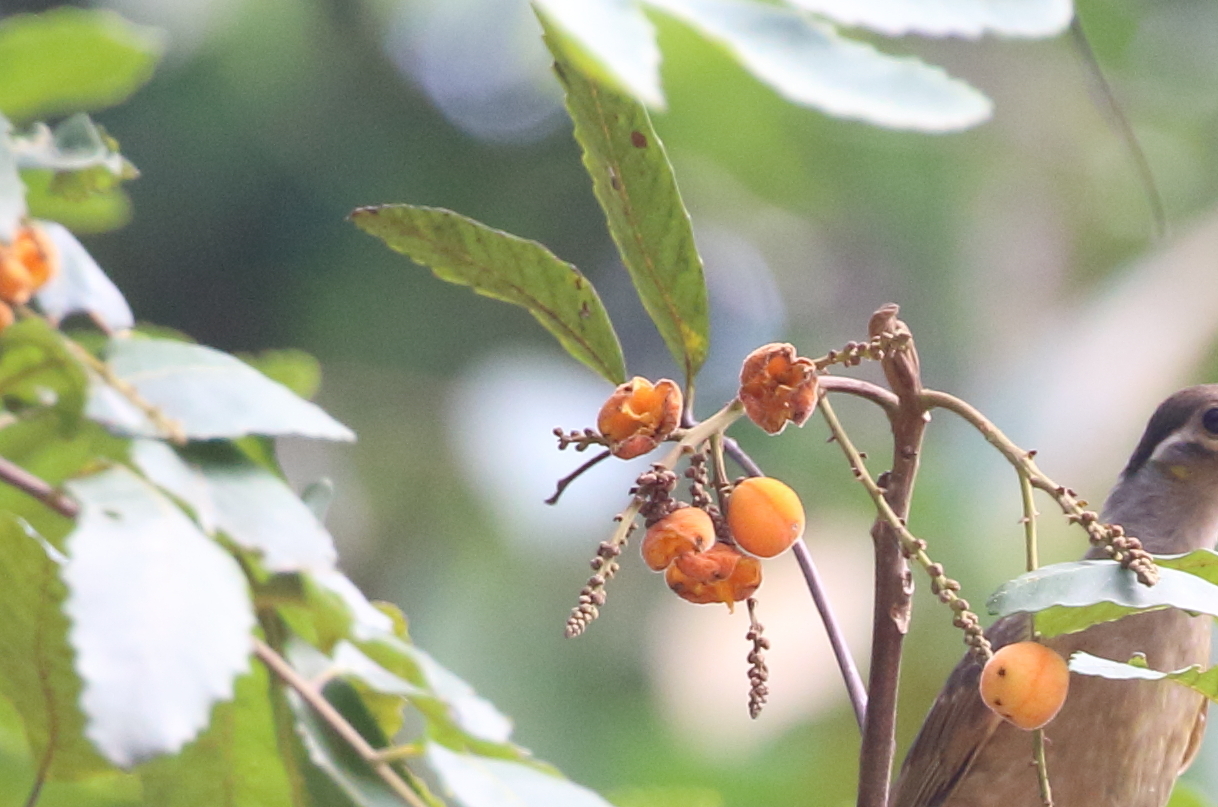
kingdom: Plantae
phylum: Tracheophyta
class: Magnoliopsida
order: Sapindales
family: Sapindaceae
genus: Cupaniopsis
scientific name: Cupaniopsis flagelliformis
